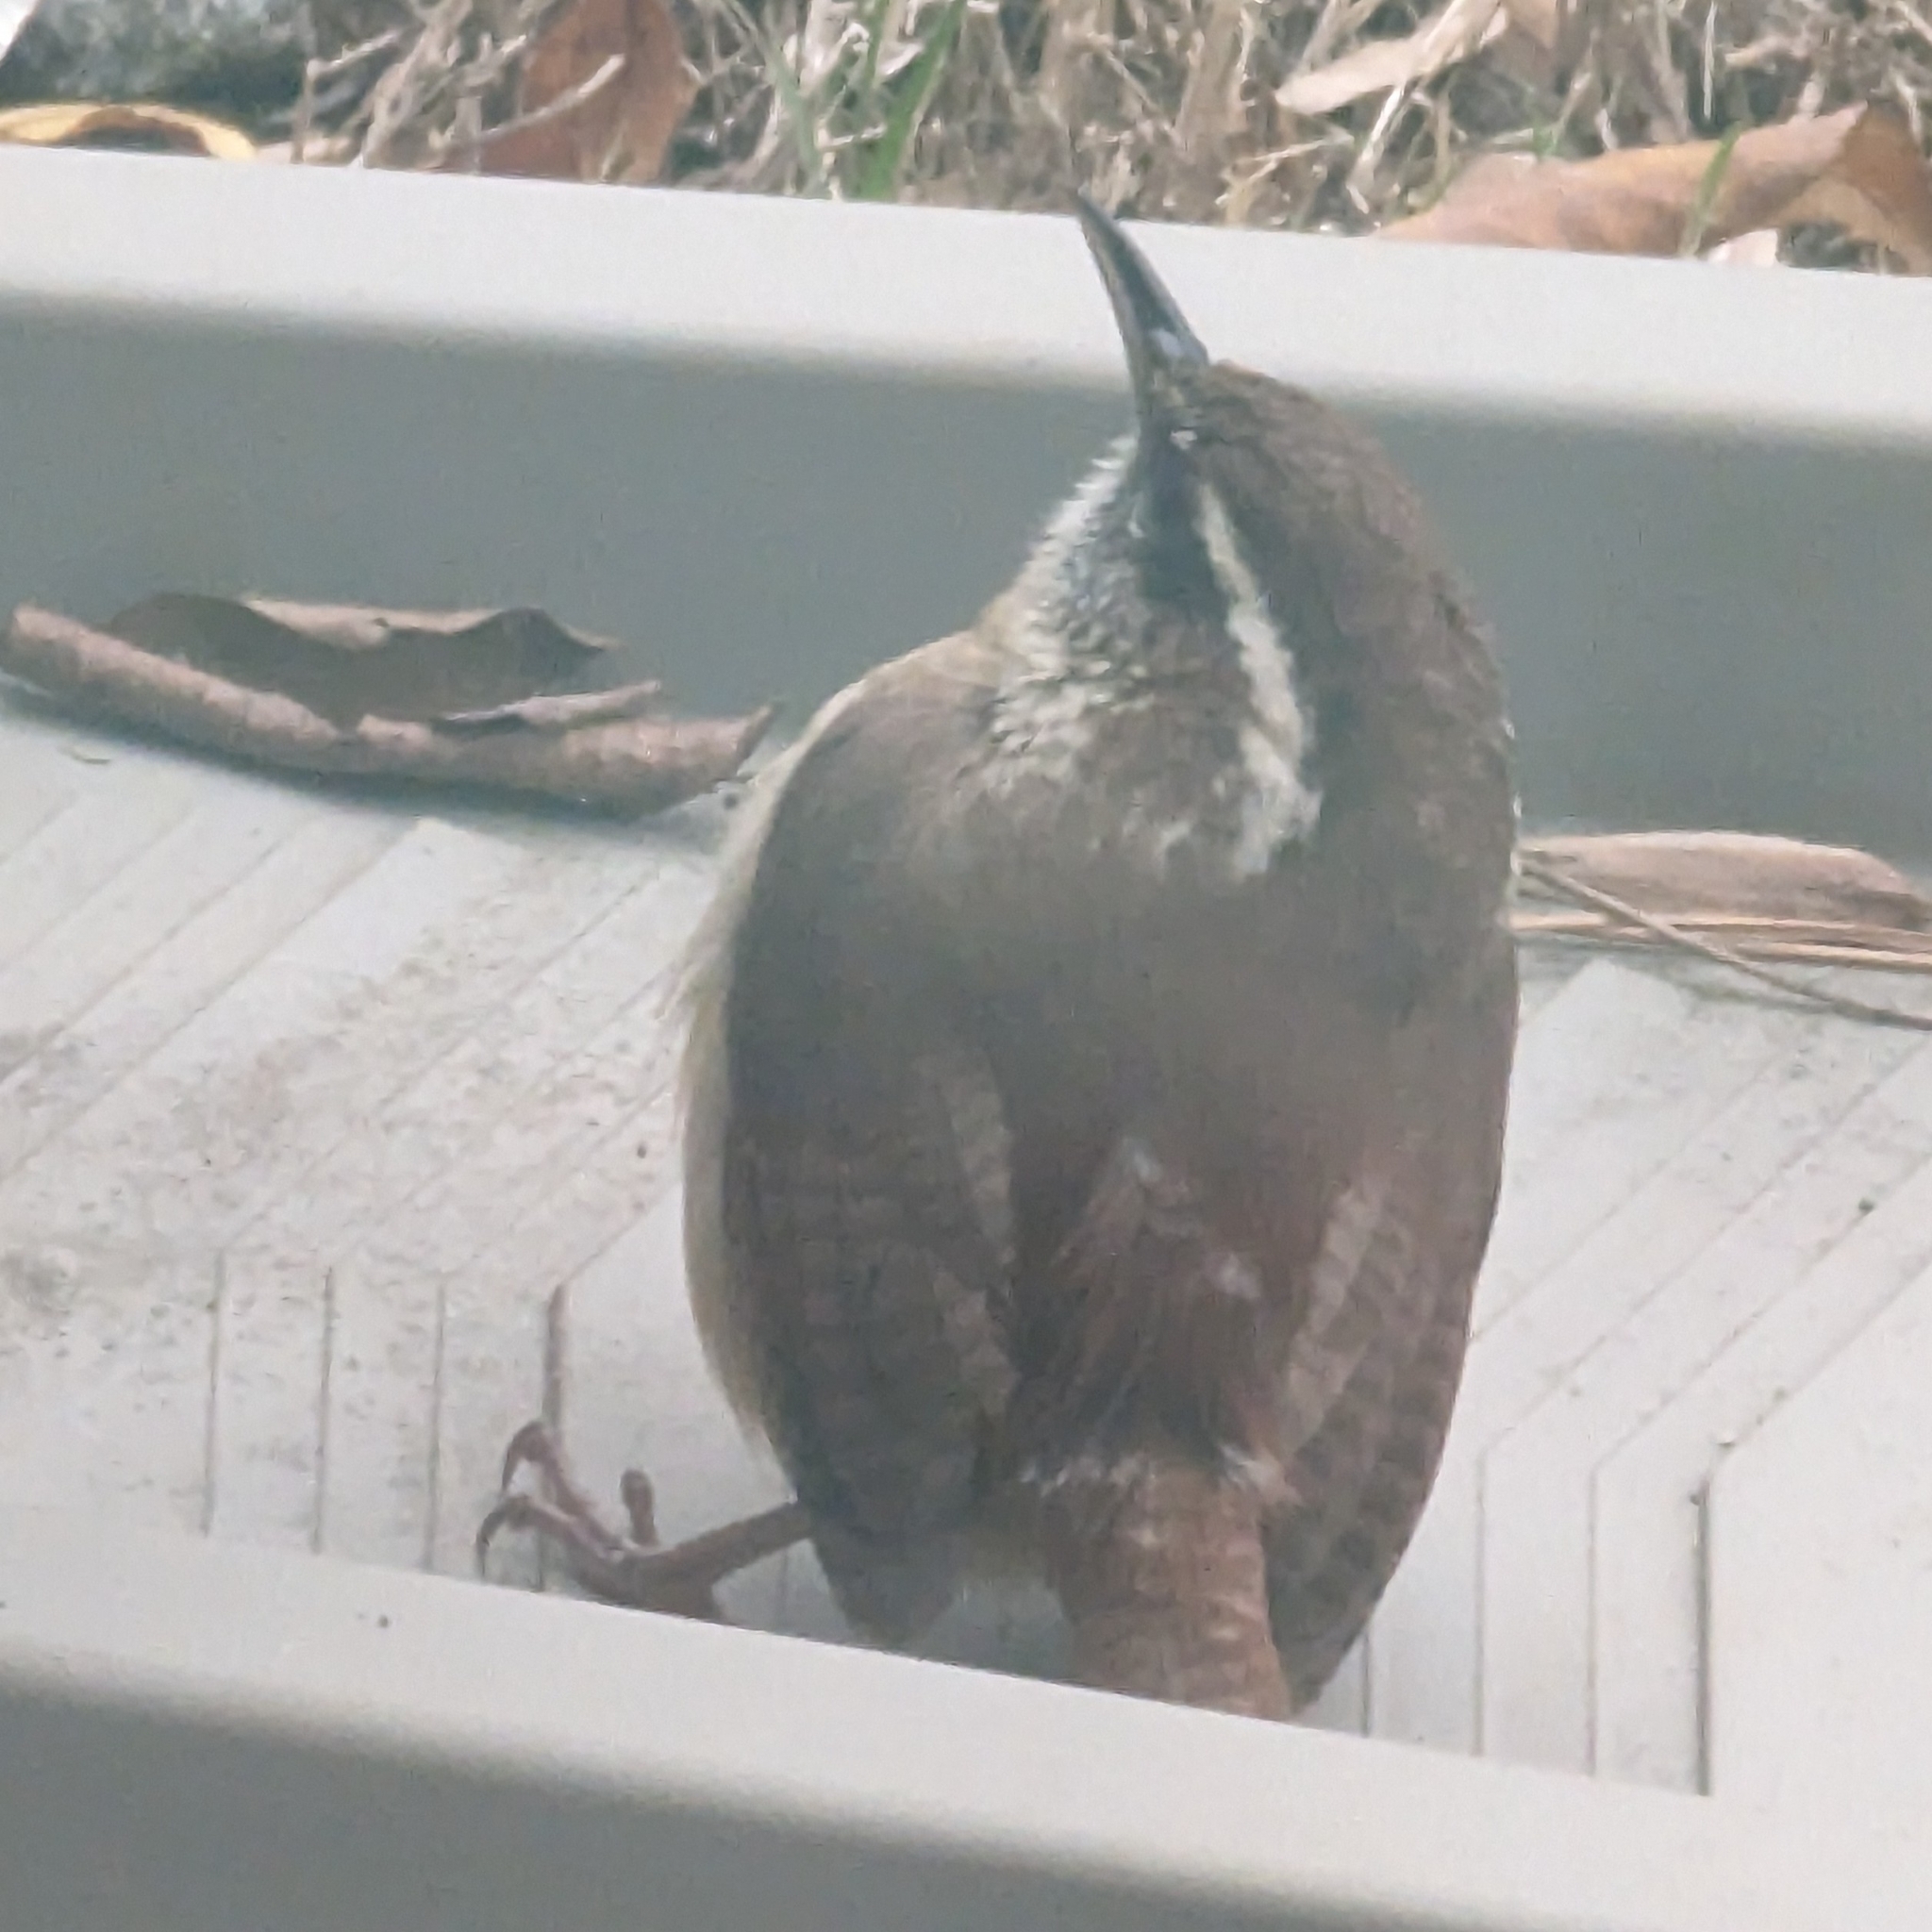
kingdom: Animalia
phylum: Chordata
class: Aves
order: Passeriformes
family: Troglodytidae
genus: Thryothorus
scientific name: Thryothorus ludovicianus
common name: Carolina wren
